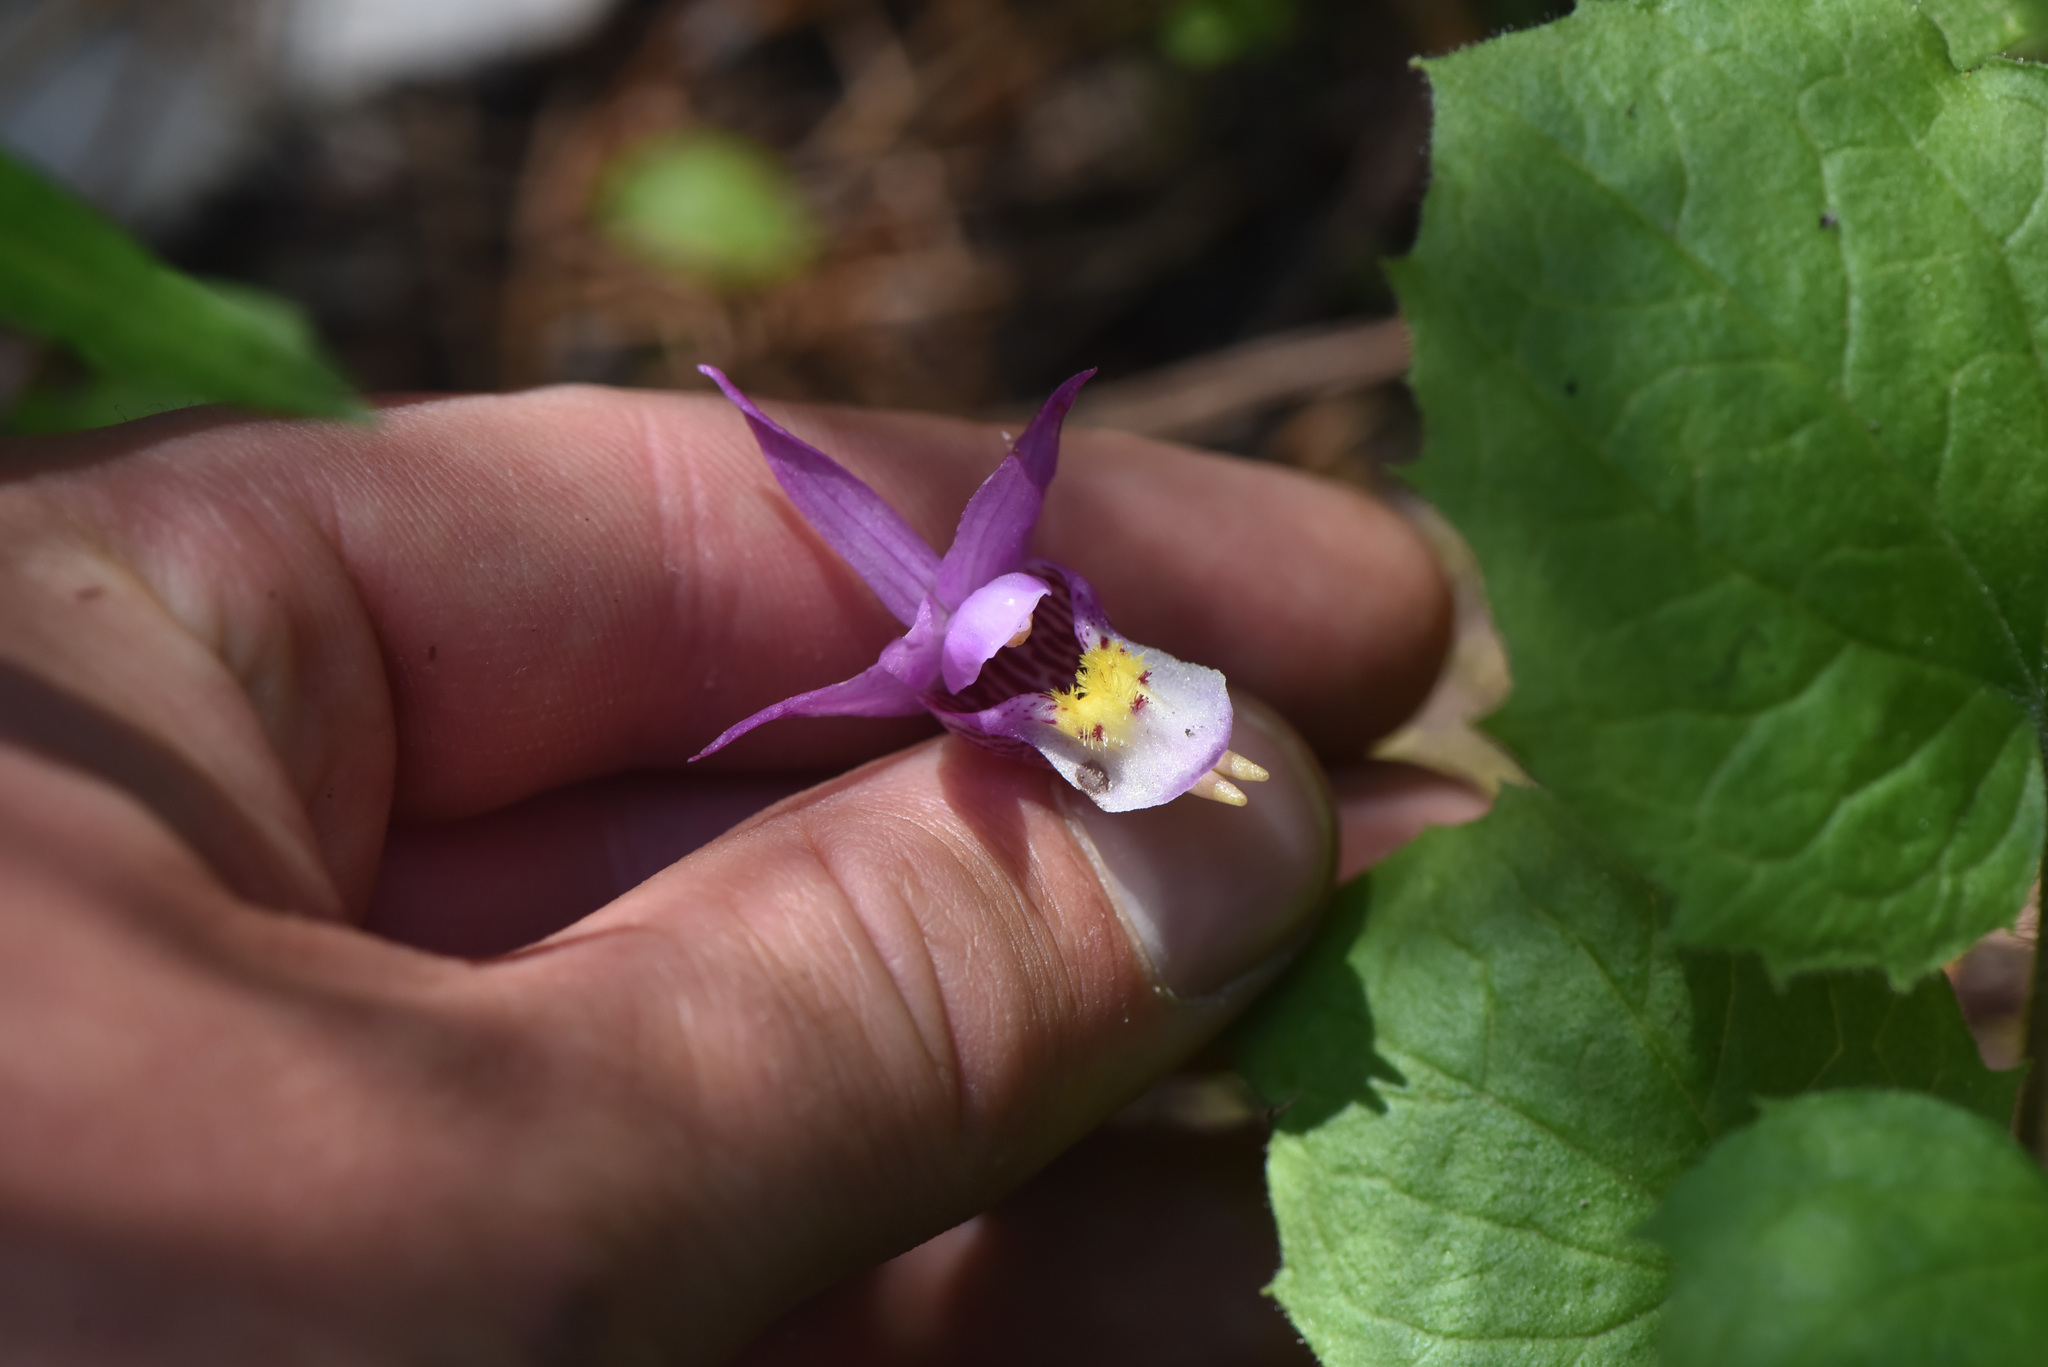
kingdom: Plantae
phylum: Tracheophyta
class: Liliopsida
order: Asparagales
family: Orchidaceae
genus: Calypso
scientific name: Calypso bulbosa
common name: Calypso
